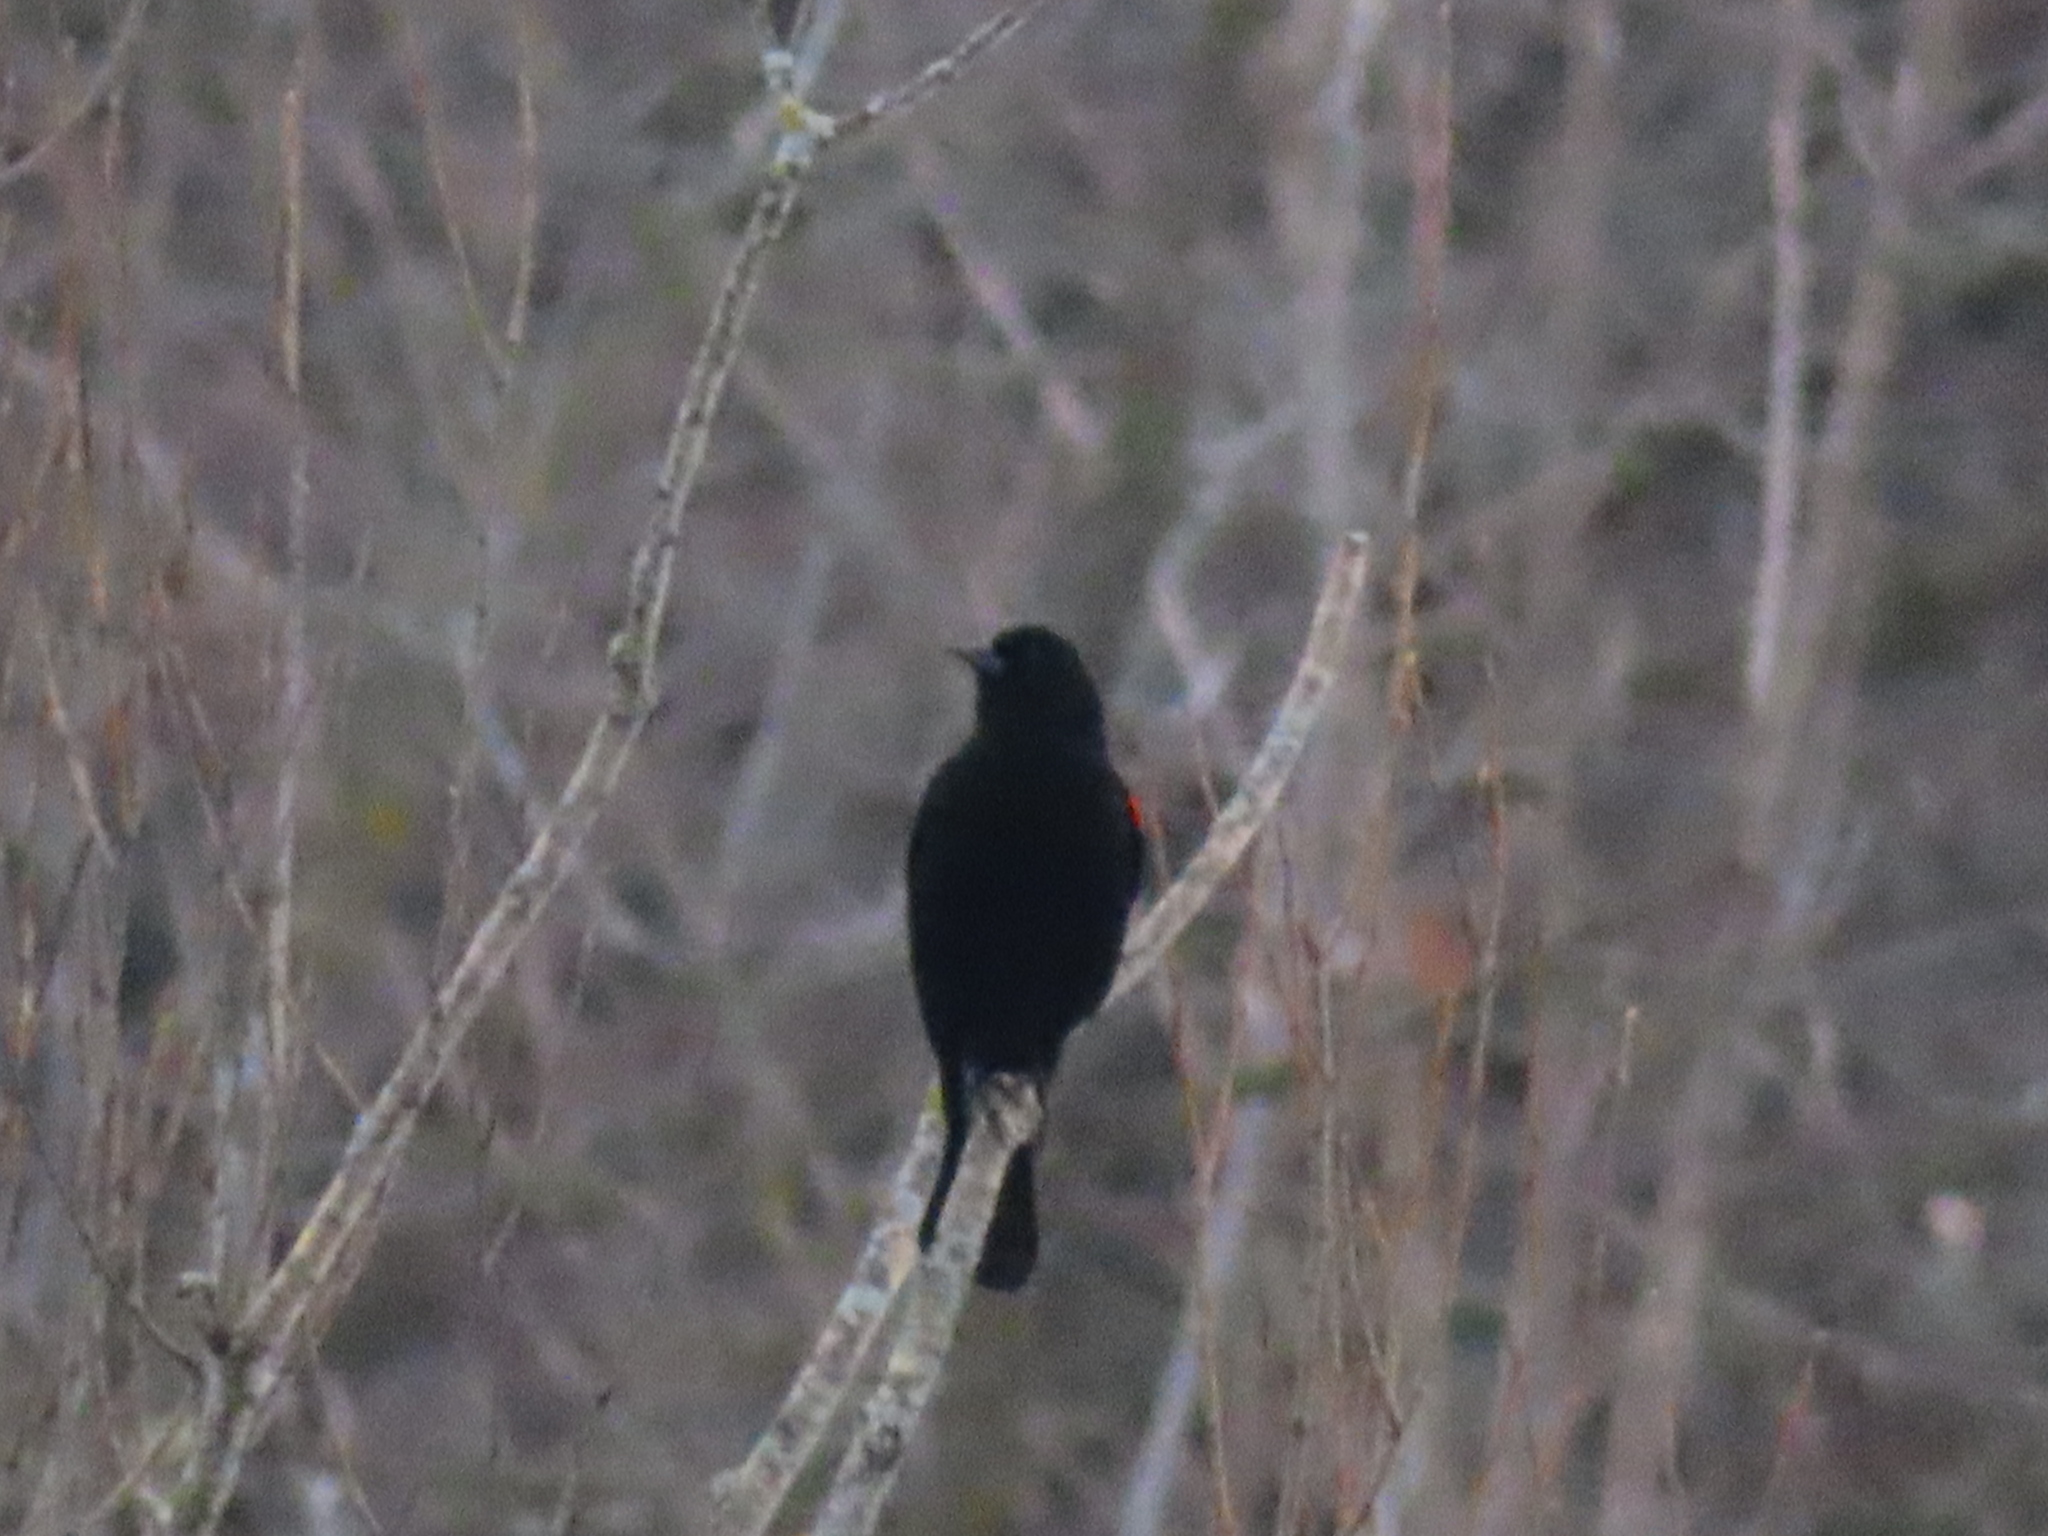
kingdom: Animalia
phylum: Chordata
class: Aves
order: Passeriformes
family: Icteridae
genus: Agelaius
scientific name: Agelaius phoeniceus
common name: Red-winged blackbird
